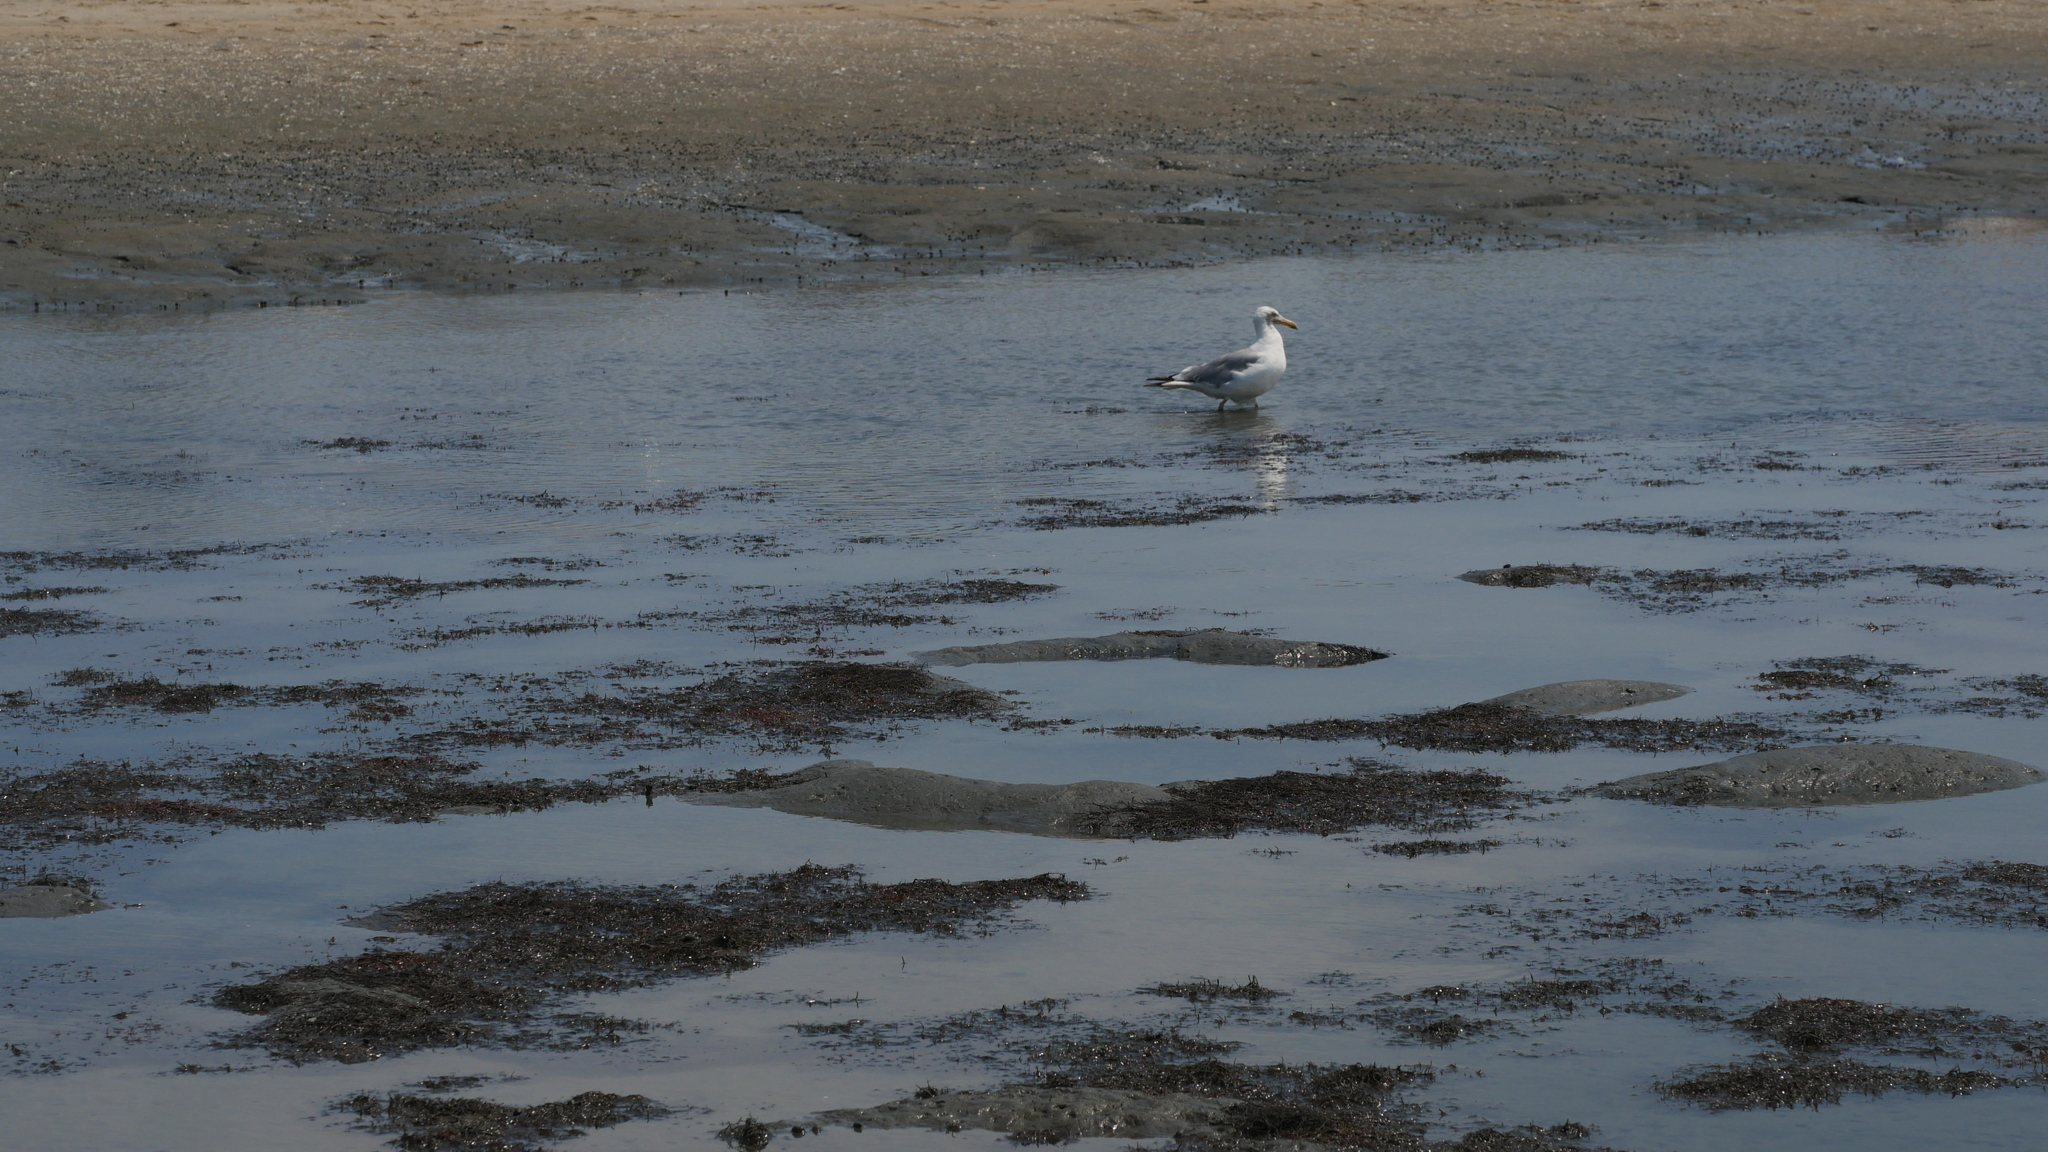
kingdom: Animalia
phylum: Chordata
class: Aves
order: Charadriiformes
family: Laridae
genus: Larus
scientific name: Larus argentatus
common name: Herring gull
